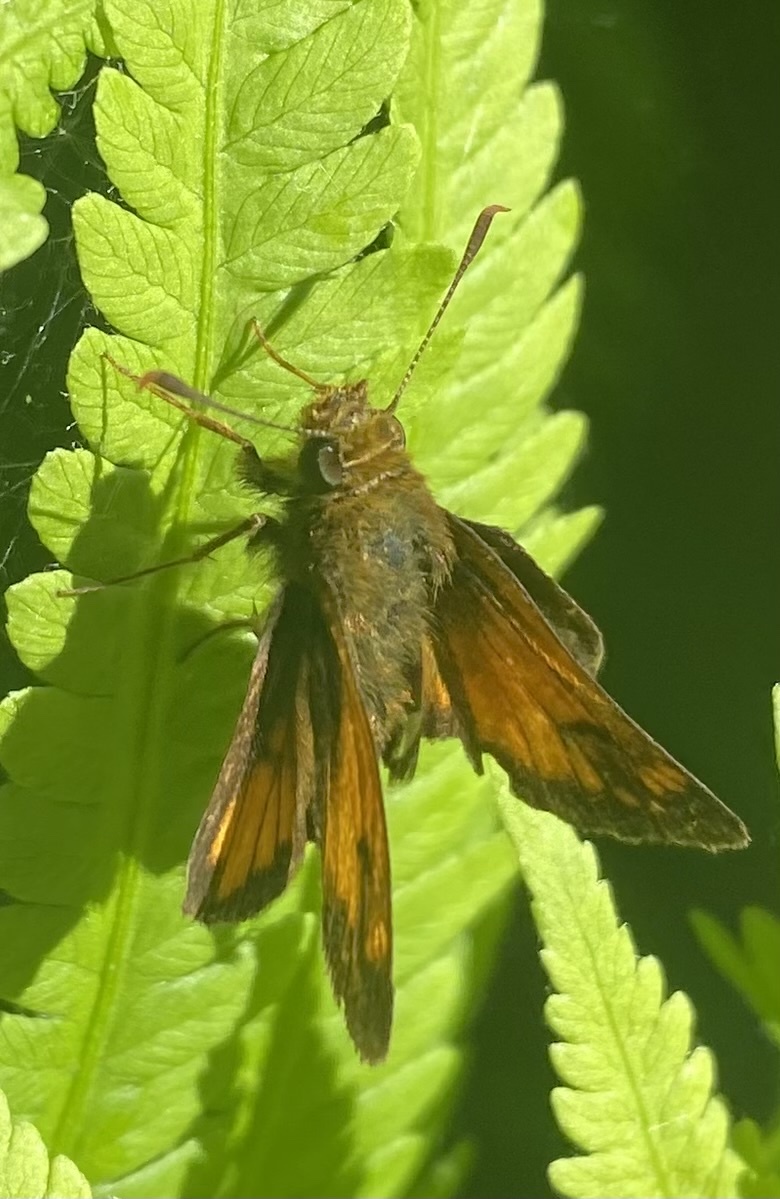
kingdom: Animalia
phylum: Arthropoda
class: Insecta
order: Lepidoptera
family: Hesperiidae
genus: Lon
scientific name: Lon hobomok
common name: Hobomok skipper
